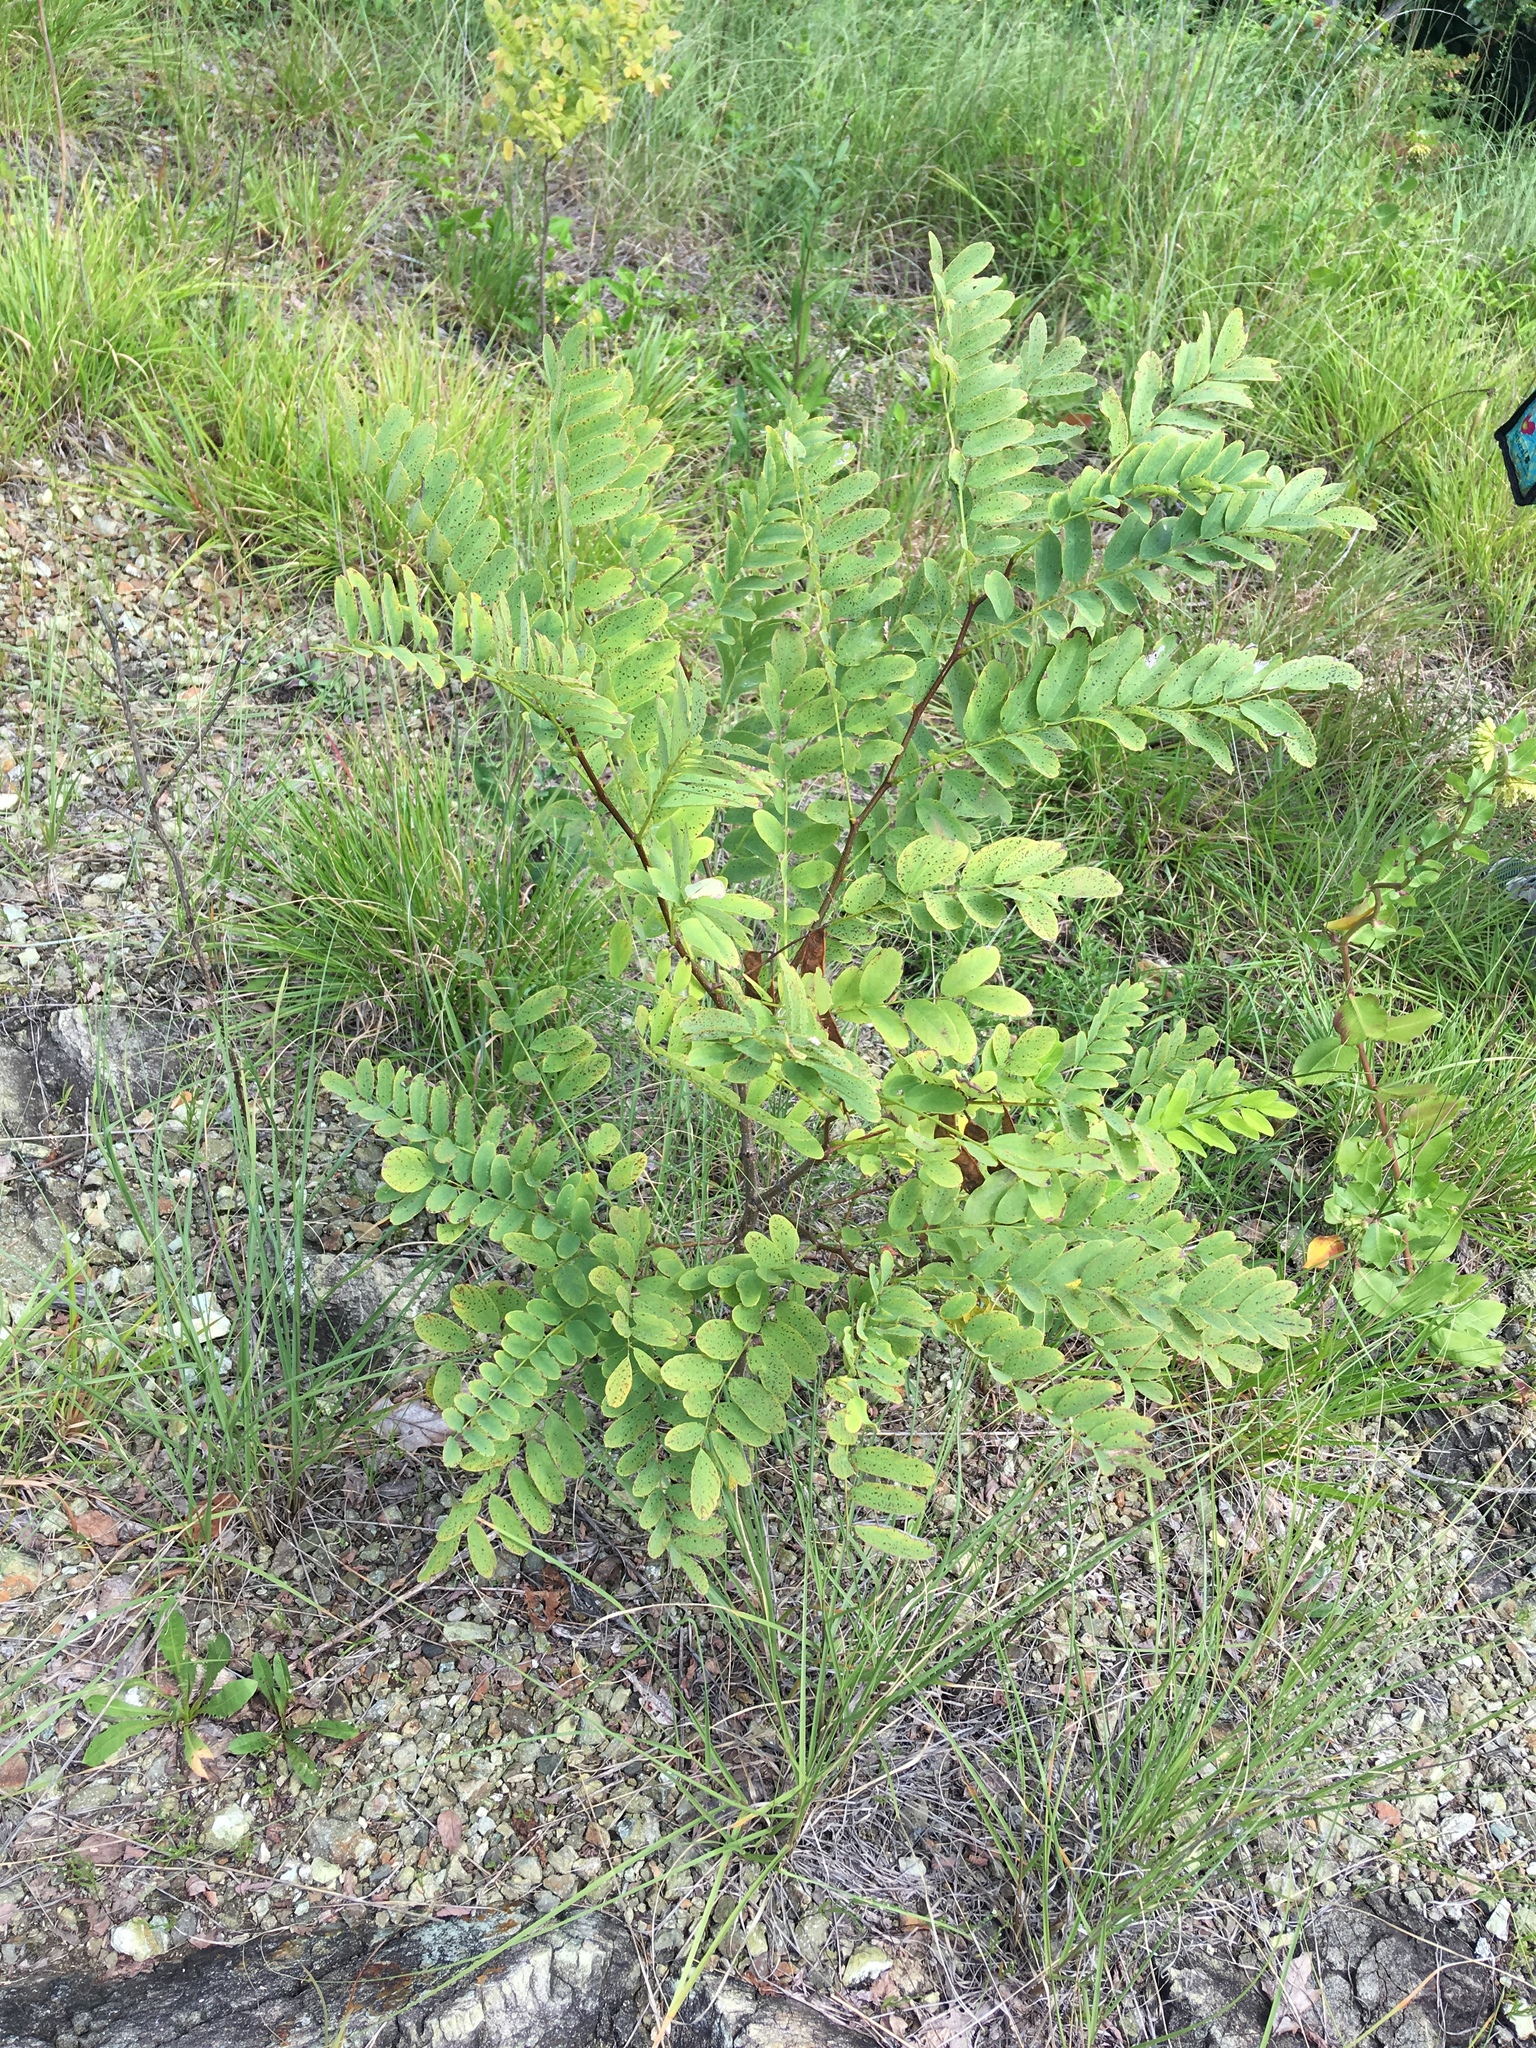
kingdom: Plantae
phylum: Tracheophyta
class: Magnoliopsida
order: Fabales
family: Fabaceae
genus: Robinia
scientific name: Robinia pseudoacacia
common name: Black locust
